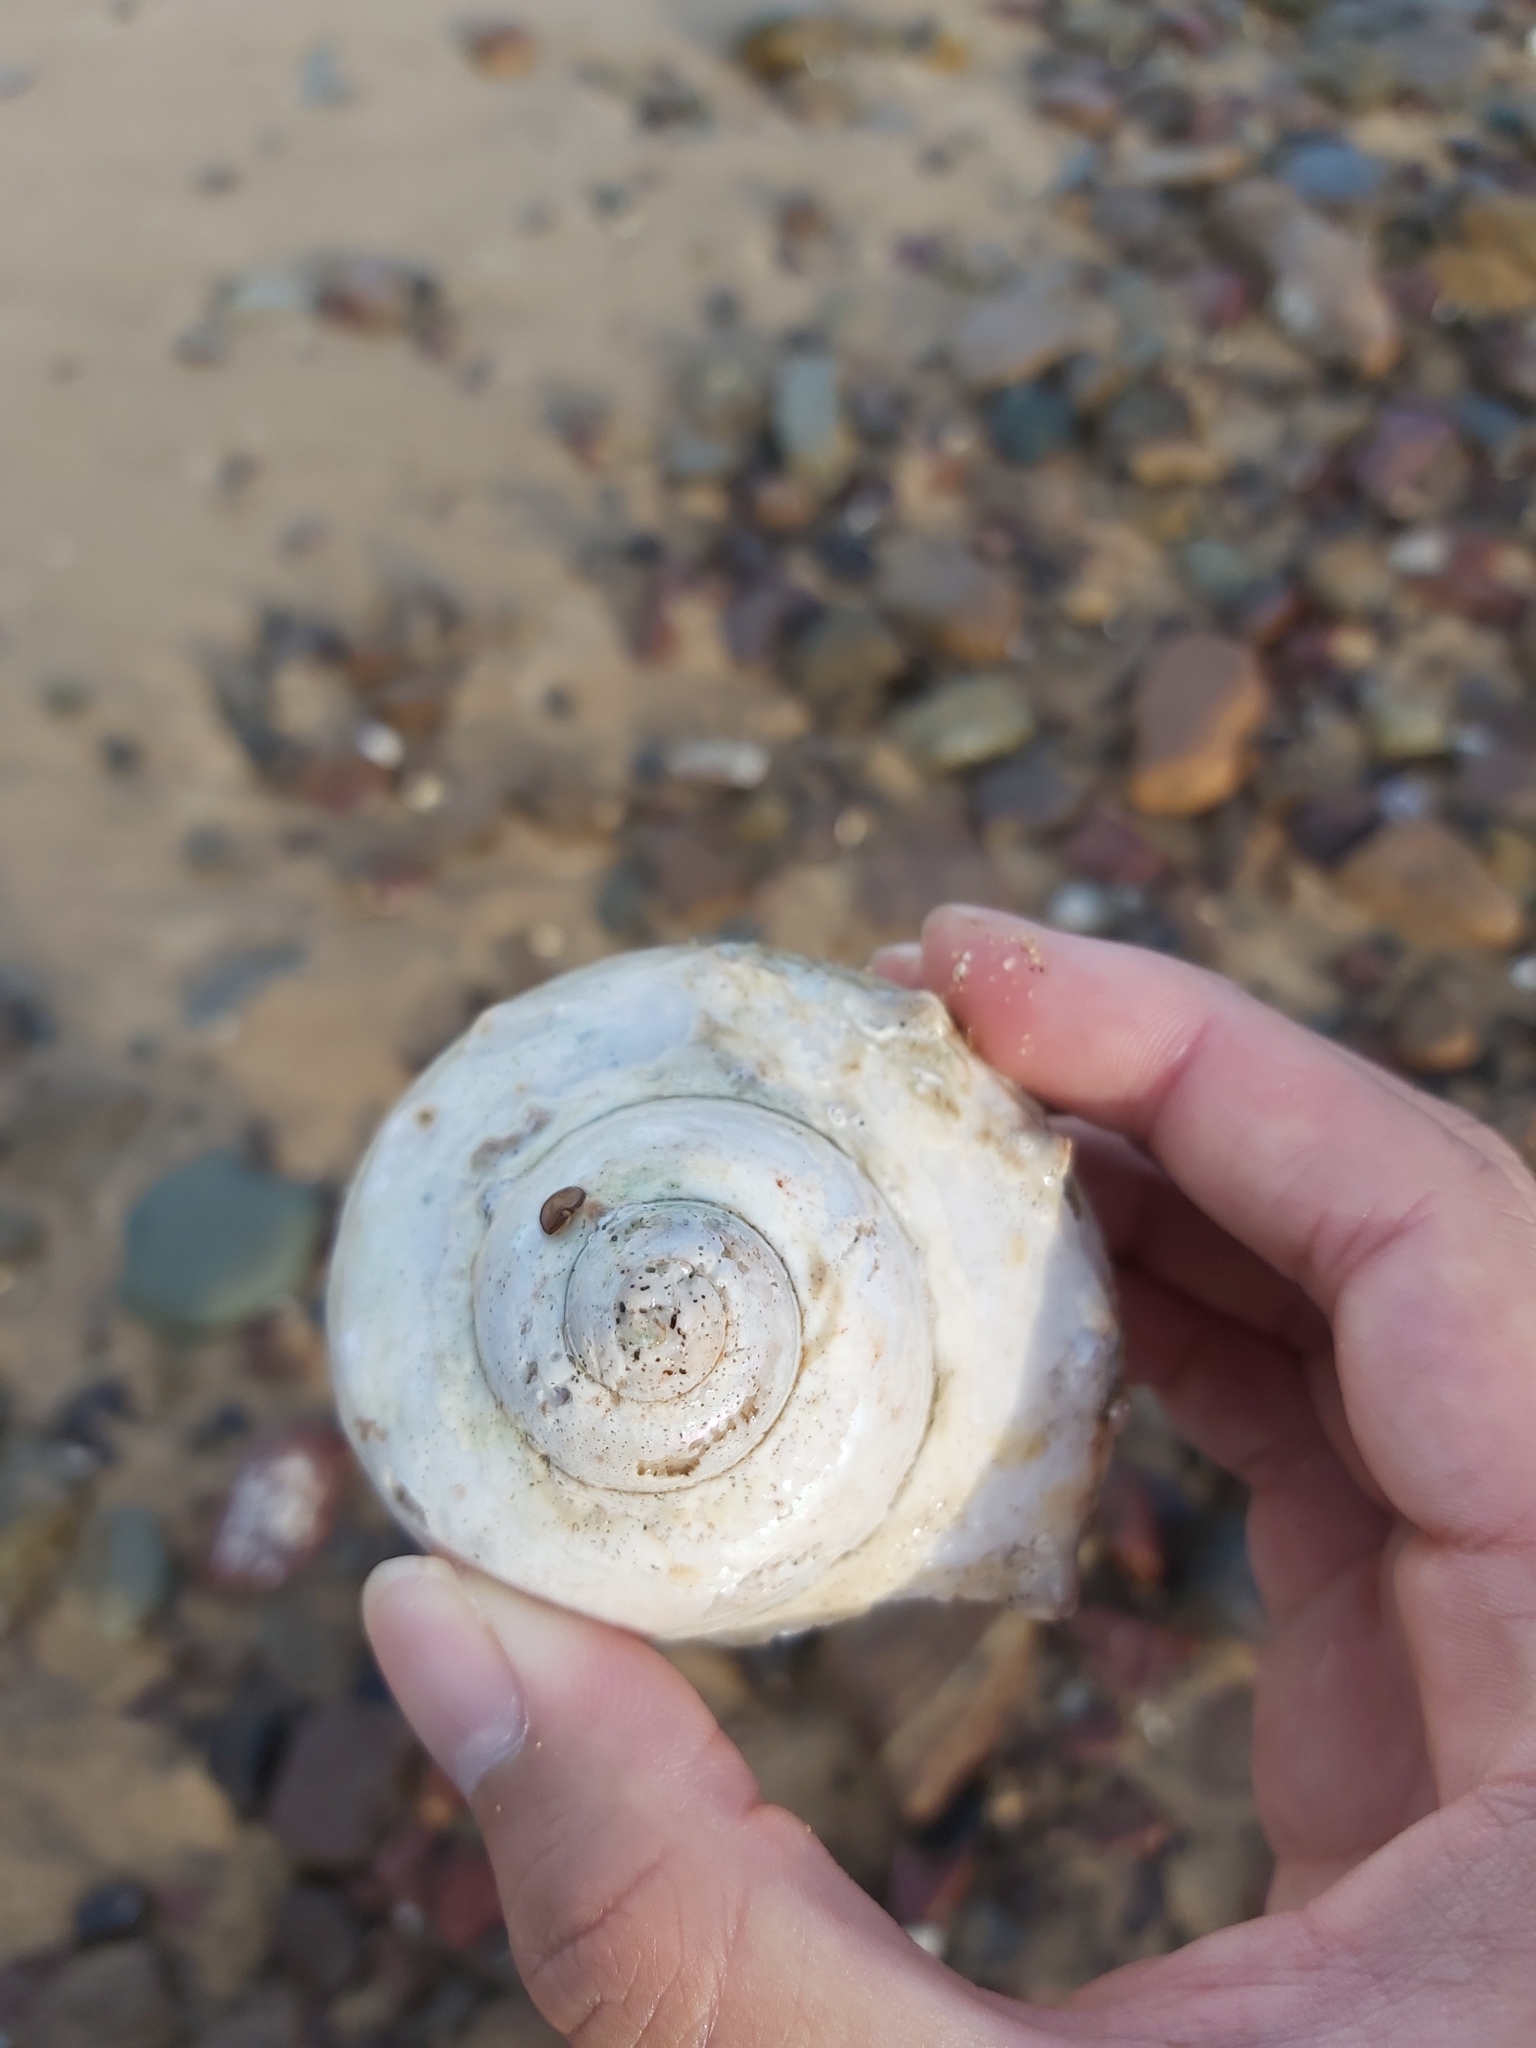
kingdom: Animalia
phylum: Mollusca
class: Gastropoda
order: Trochida
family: Turbinidae
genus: Turbo
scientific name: Turbo militaris
